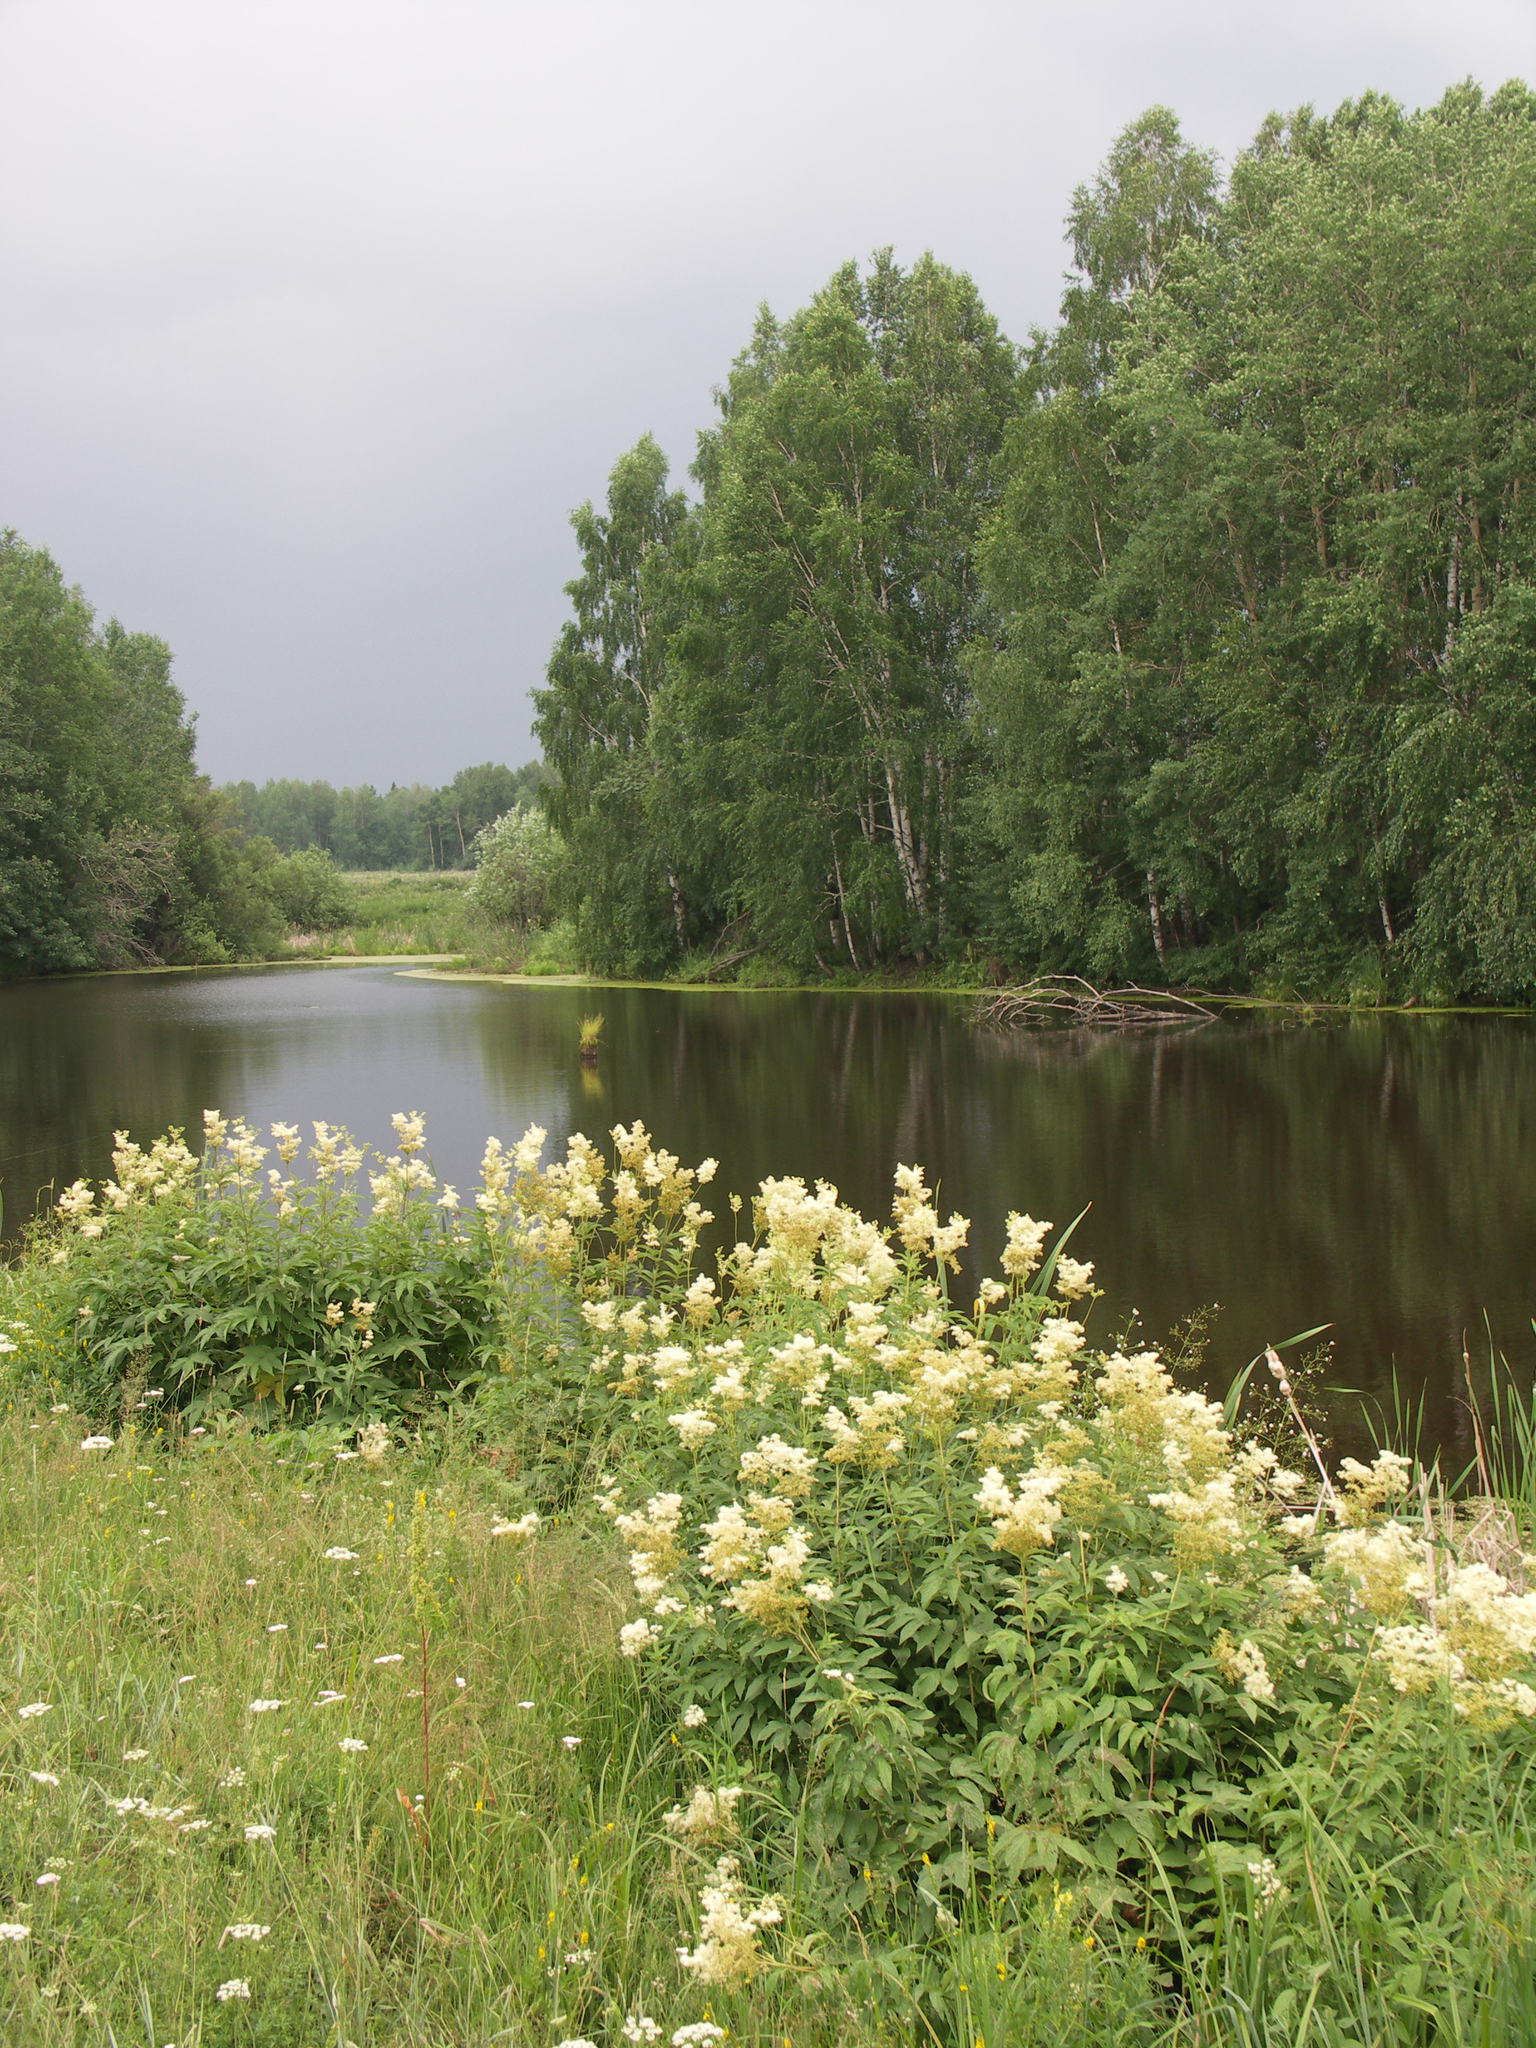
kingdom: Plantae
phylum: Tracheophyta
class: Magnoliopsida
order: Malpighiales
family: Salicaceae
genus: Populus
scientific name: Populus tremula
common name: European aspen
